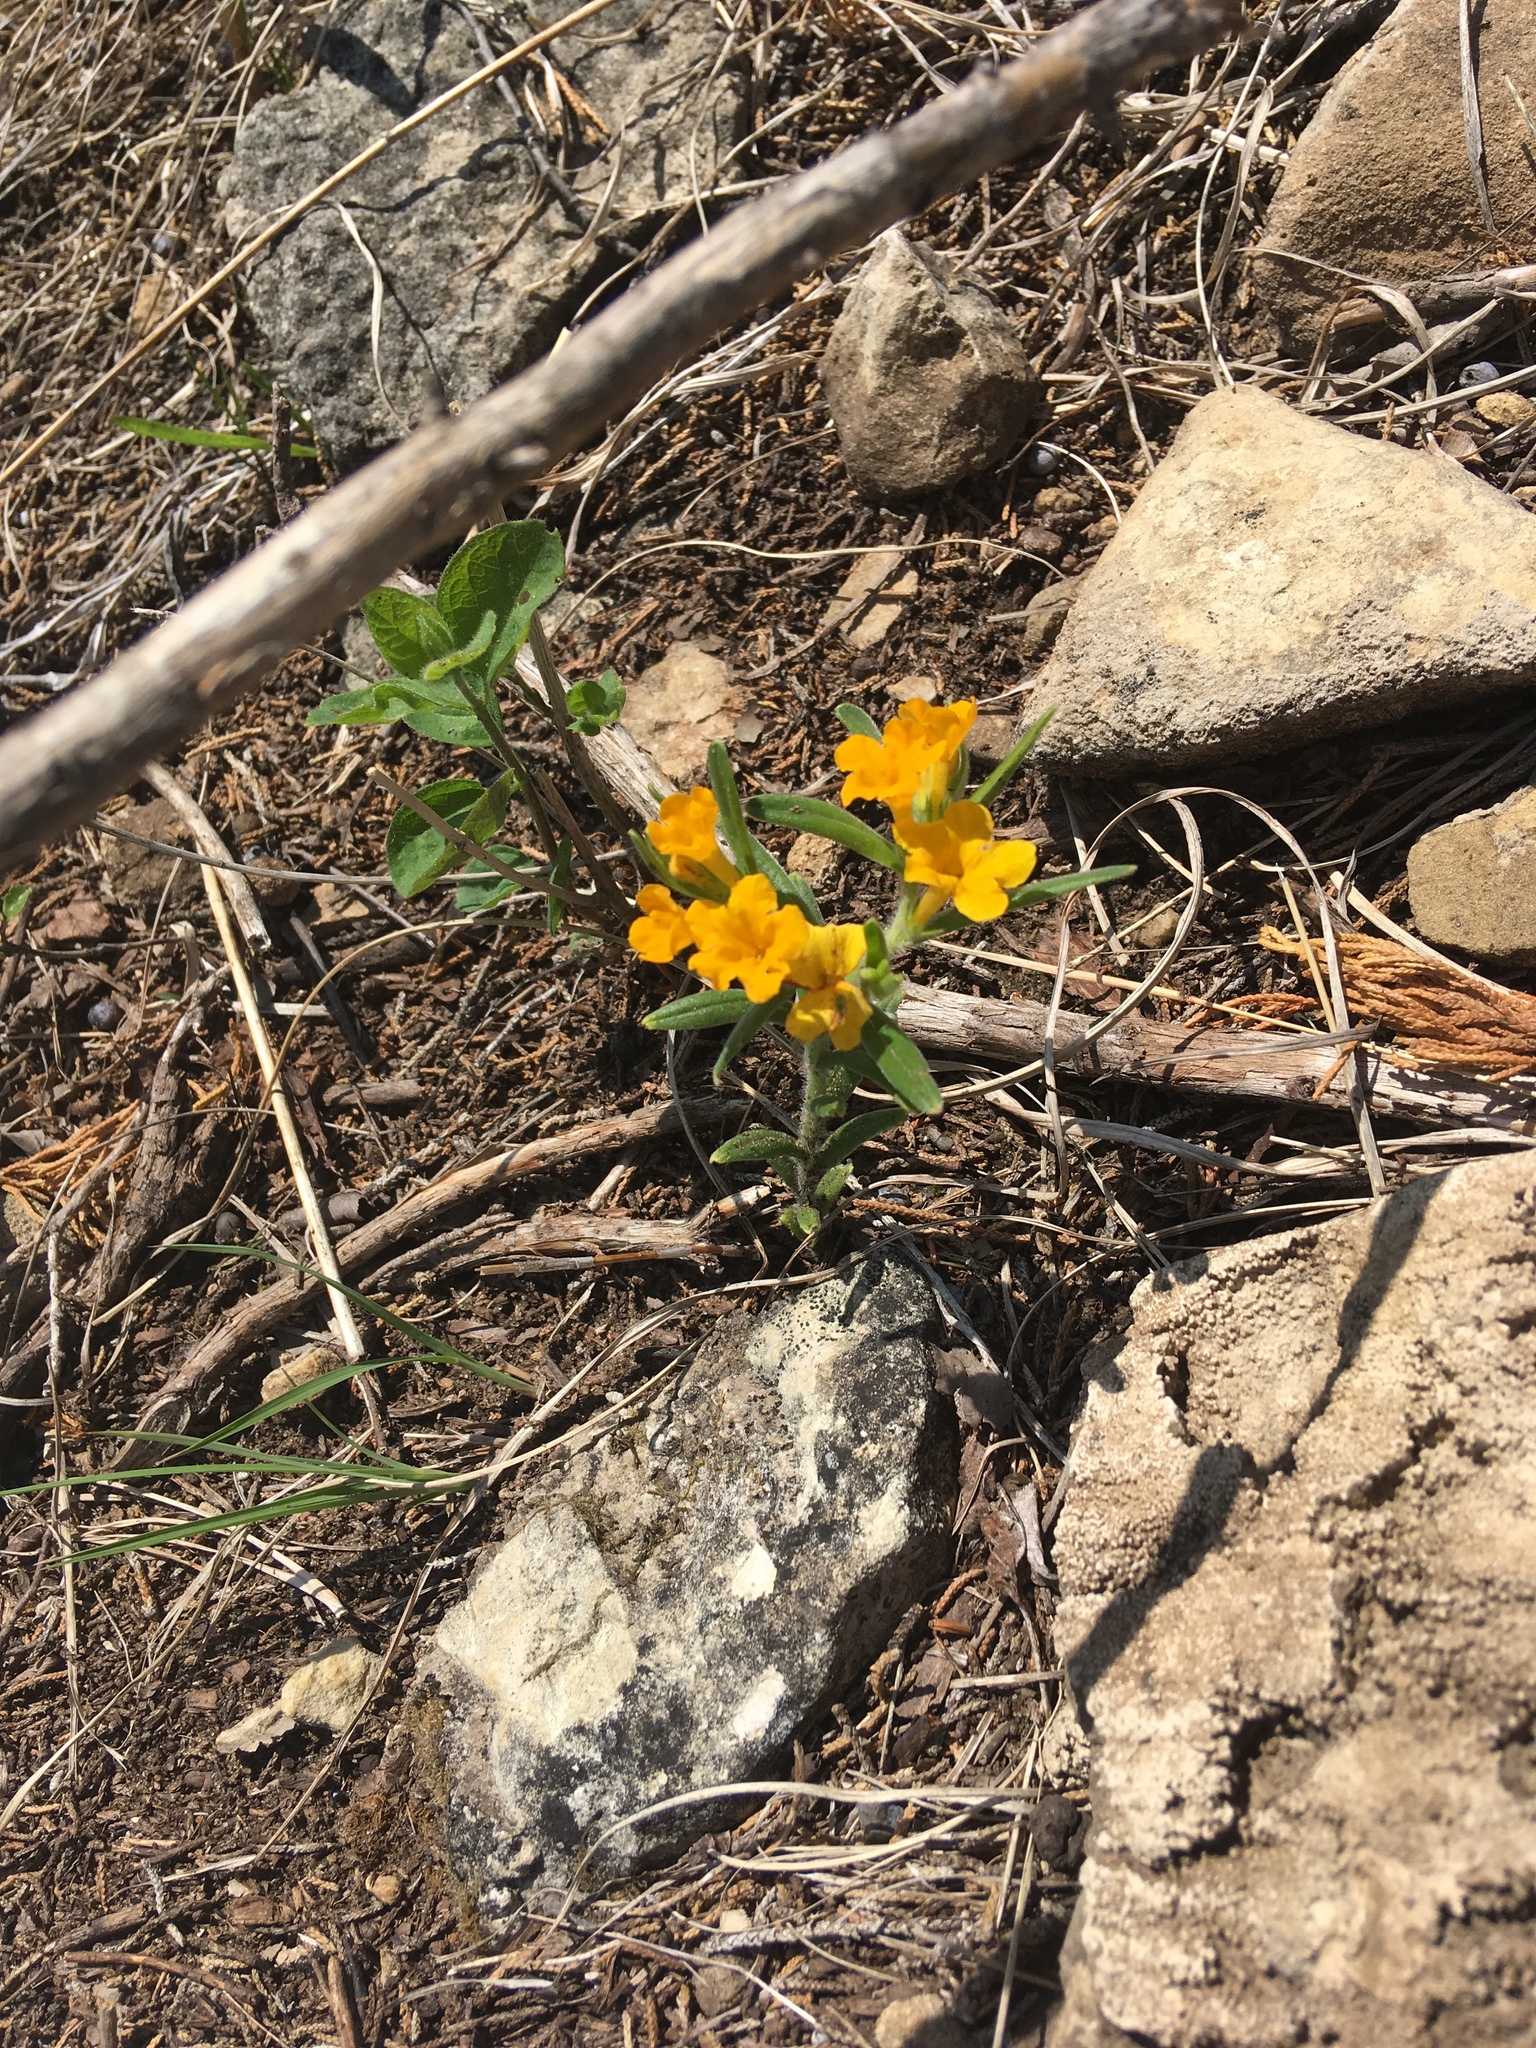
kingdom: Plantae
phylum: Tracheophyta
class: Magnoliopsida
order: Boraginales
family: Boraginaceae
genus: Lithospermum
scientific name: Lithospermum canescens
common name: Hoary puccoon
